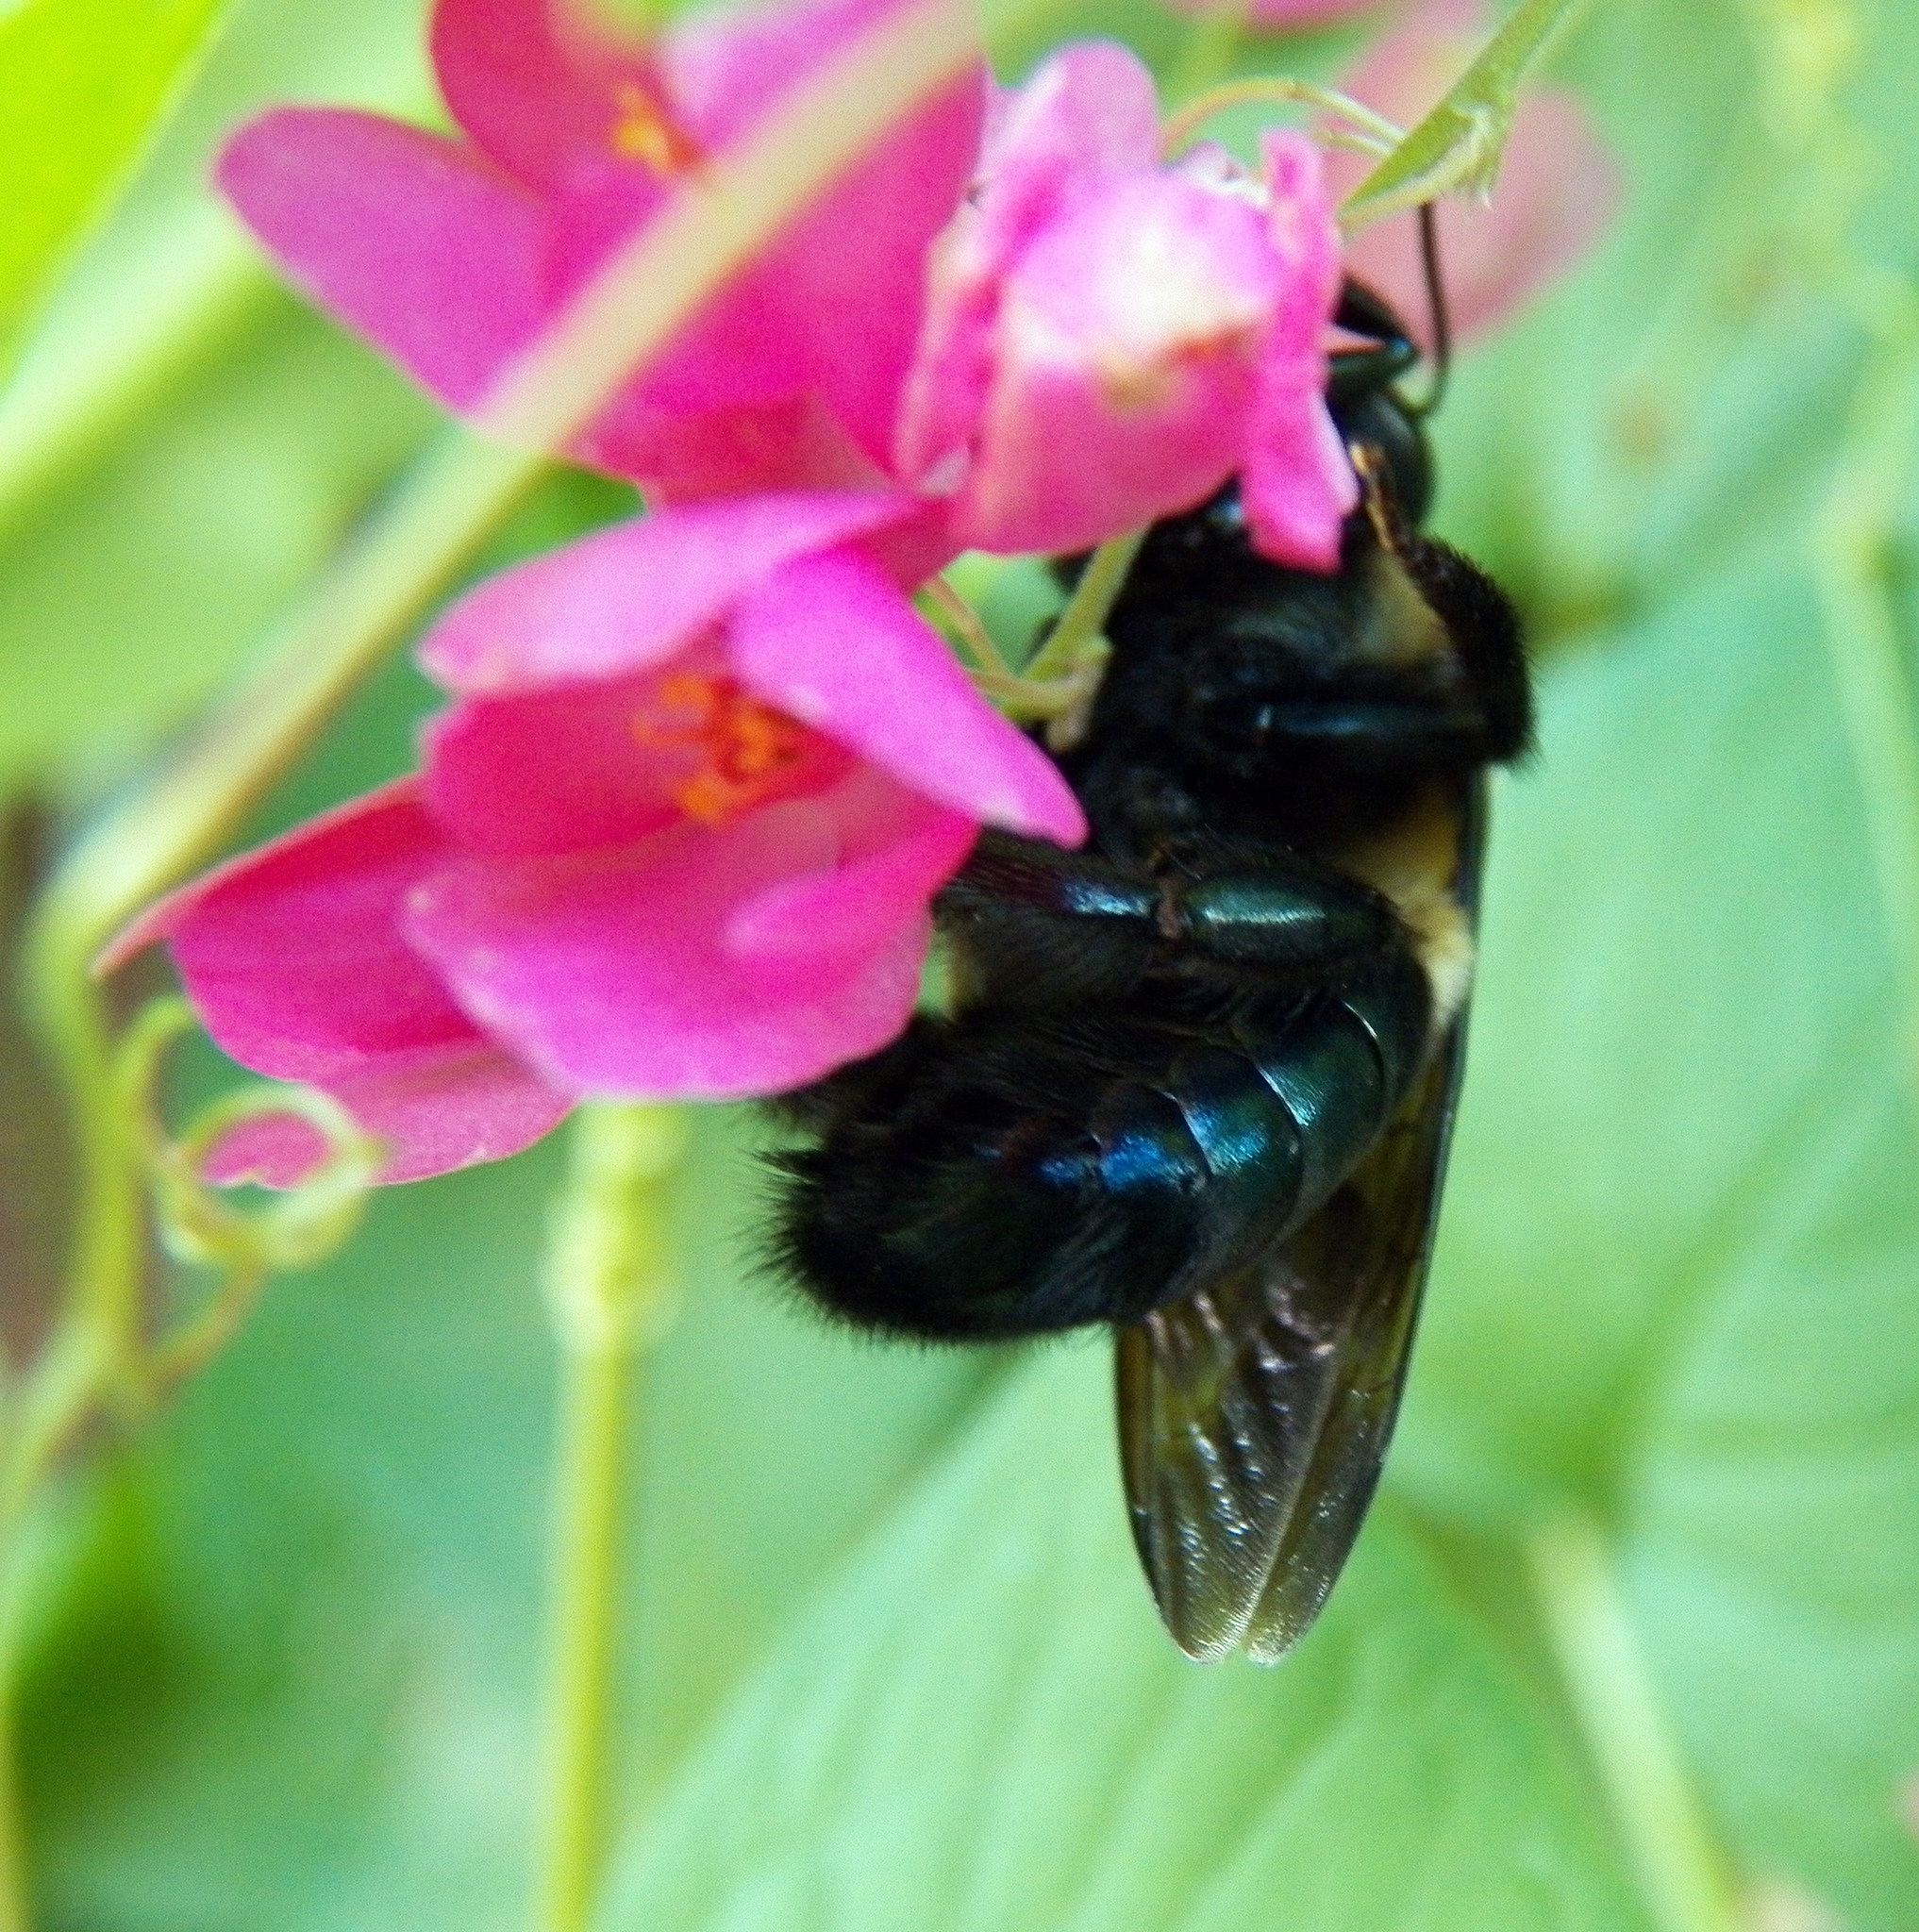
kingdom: Animalia
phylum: Arthropoda
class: Insecta
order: Hymenoptera
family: Apidae
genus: Xylocopa
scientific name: Xylocopa micans
